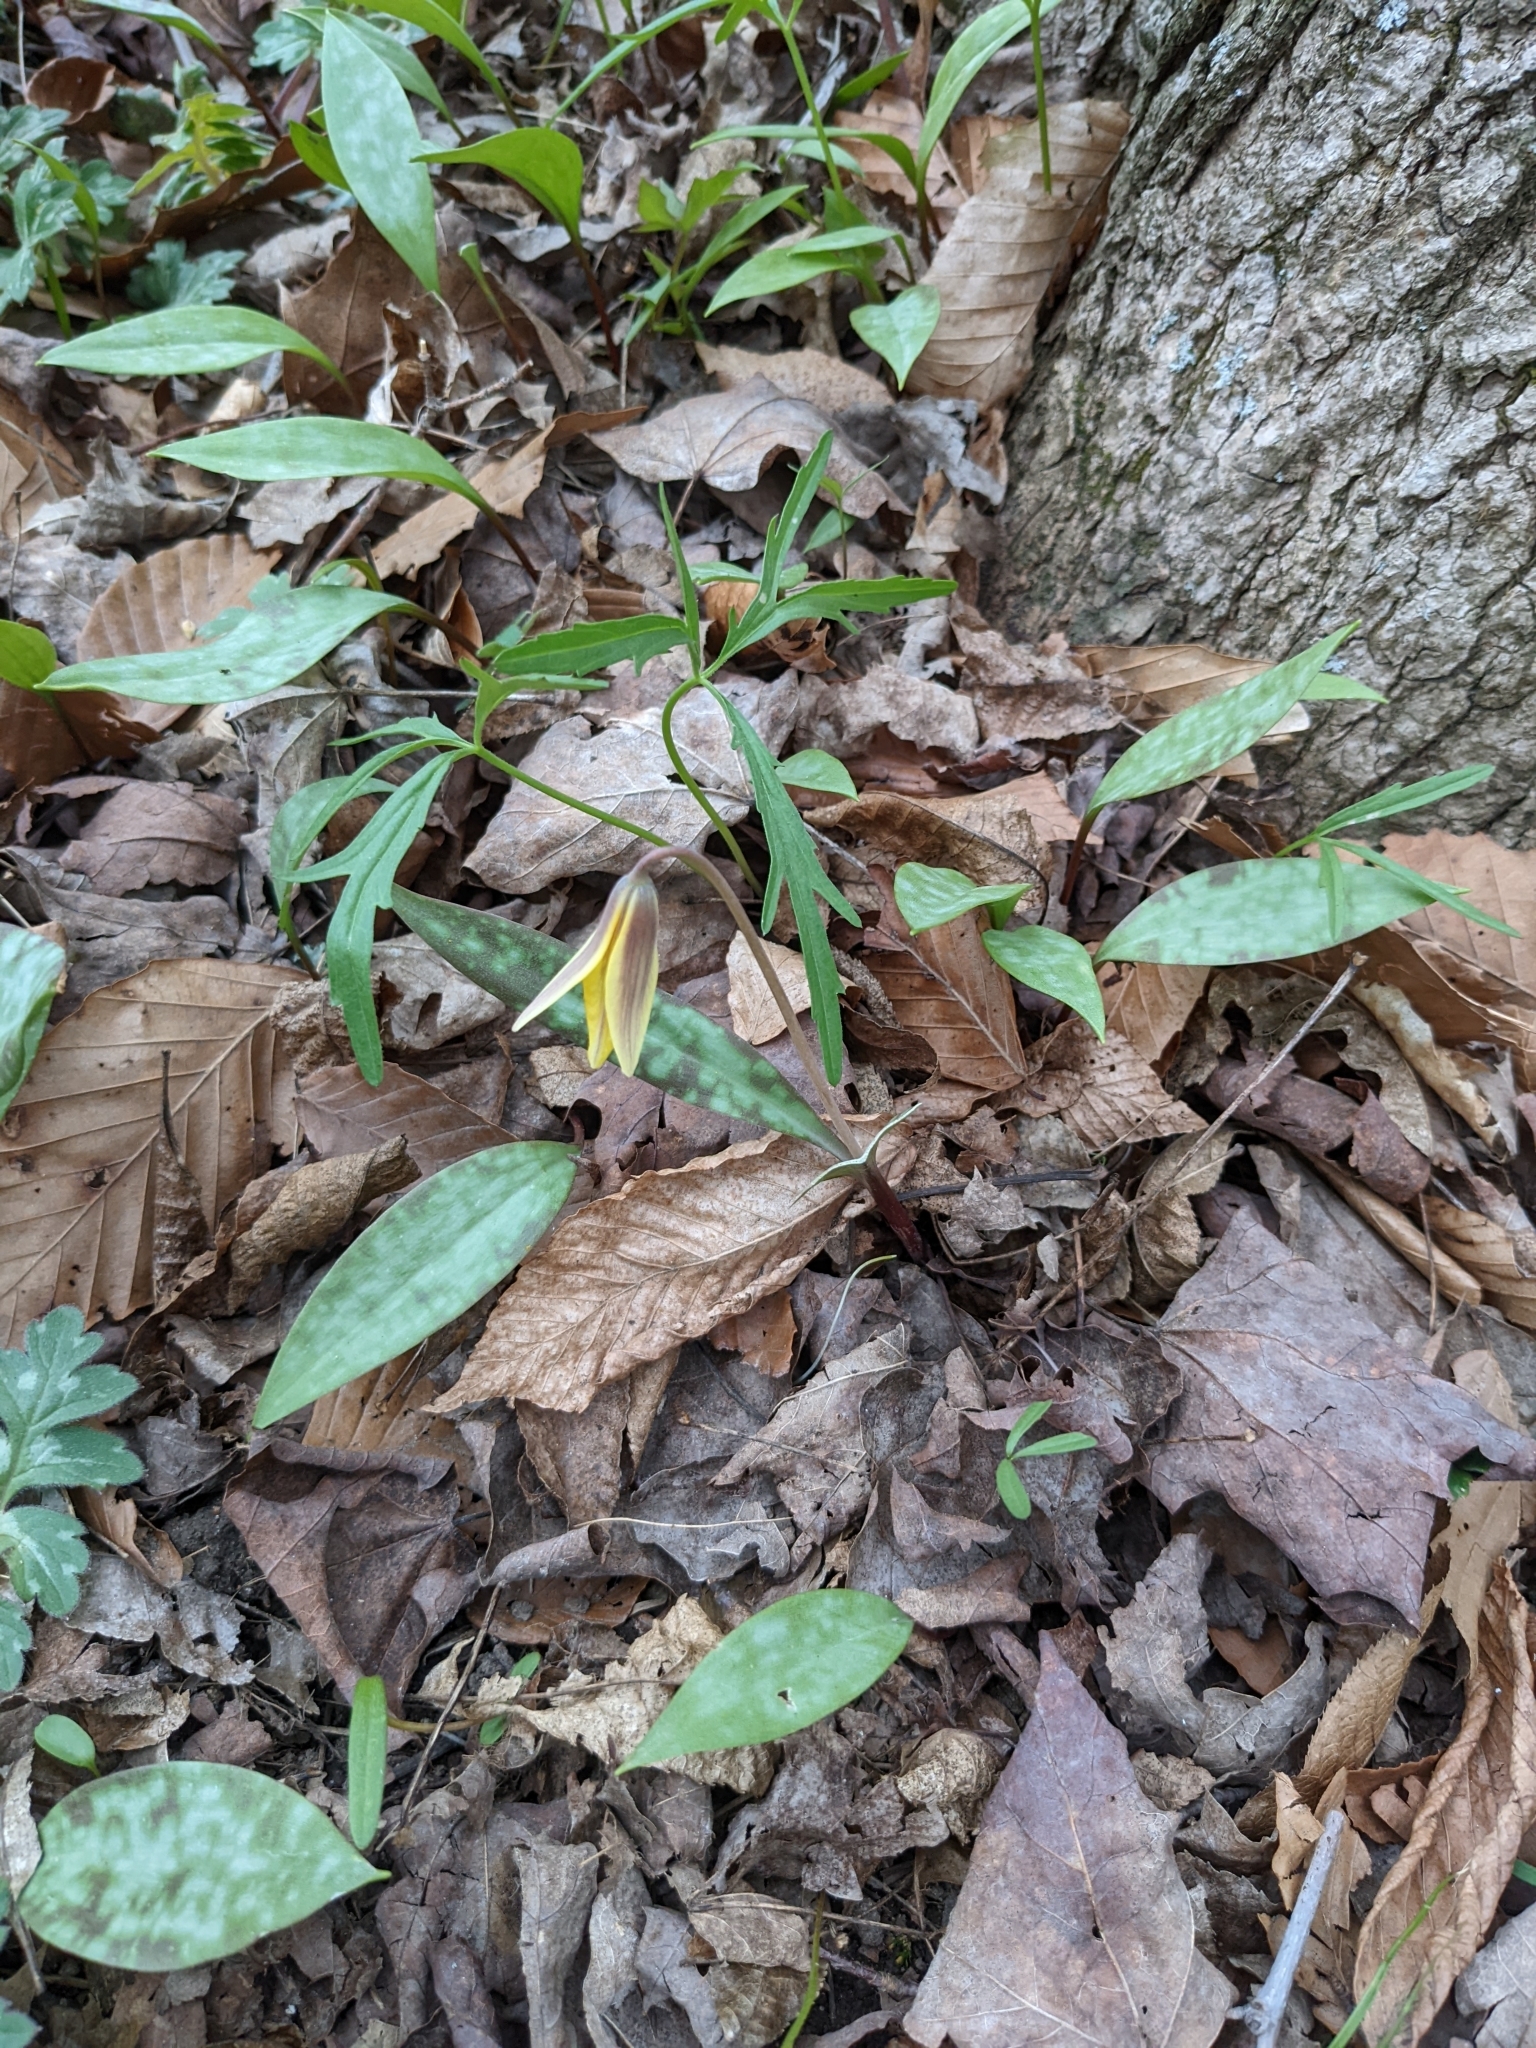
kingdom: Plantae
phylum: Tracheophyta
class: Liliopsida
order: Liliales
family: Liliaceae
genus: Erythronium
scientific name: Erythronium americanum
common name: Yellow adder's-tongue
